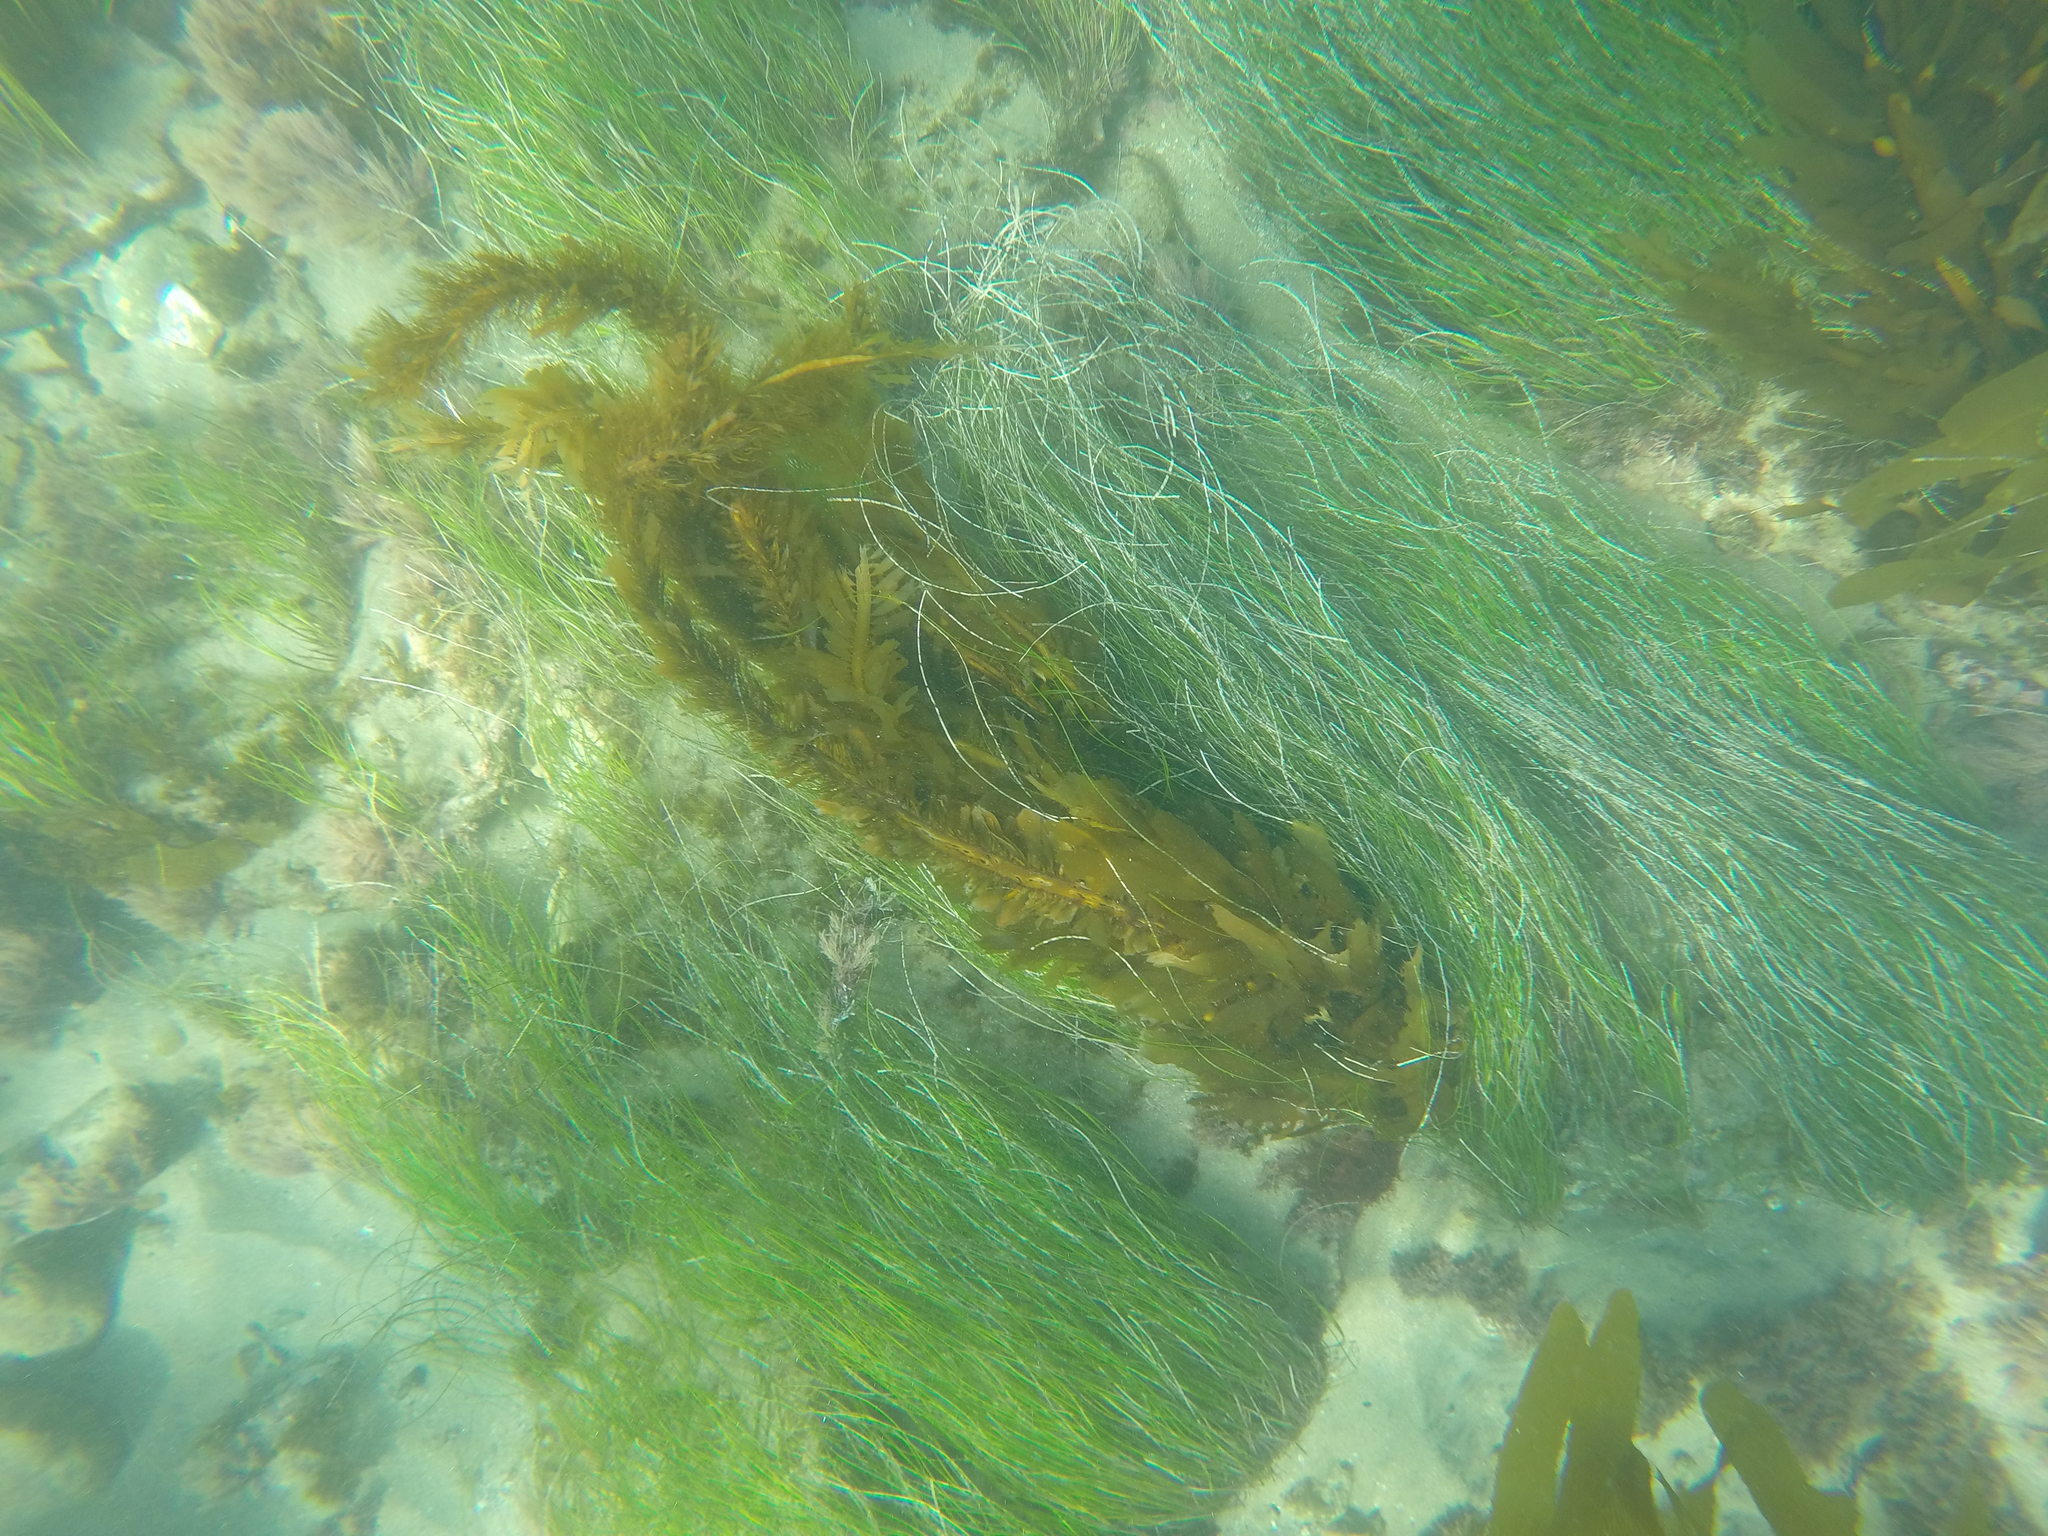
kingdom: Chromista
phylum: Ochrophyta
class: Phaeophyceae
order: Laminariales
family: Lessoniaceae
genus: Egregia
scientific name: Egregia menziesii
